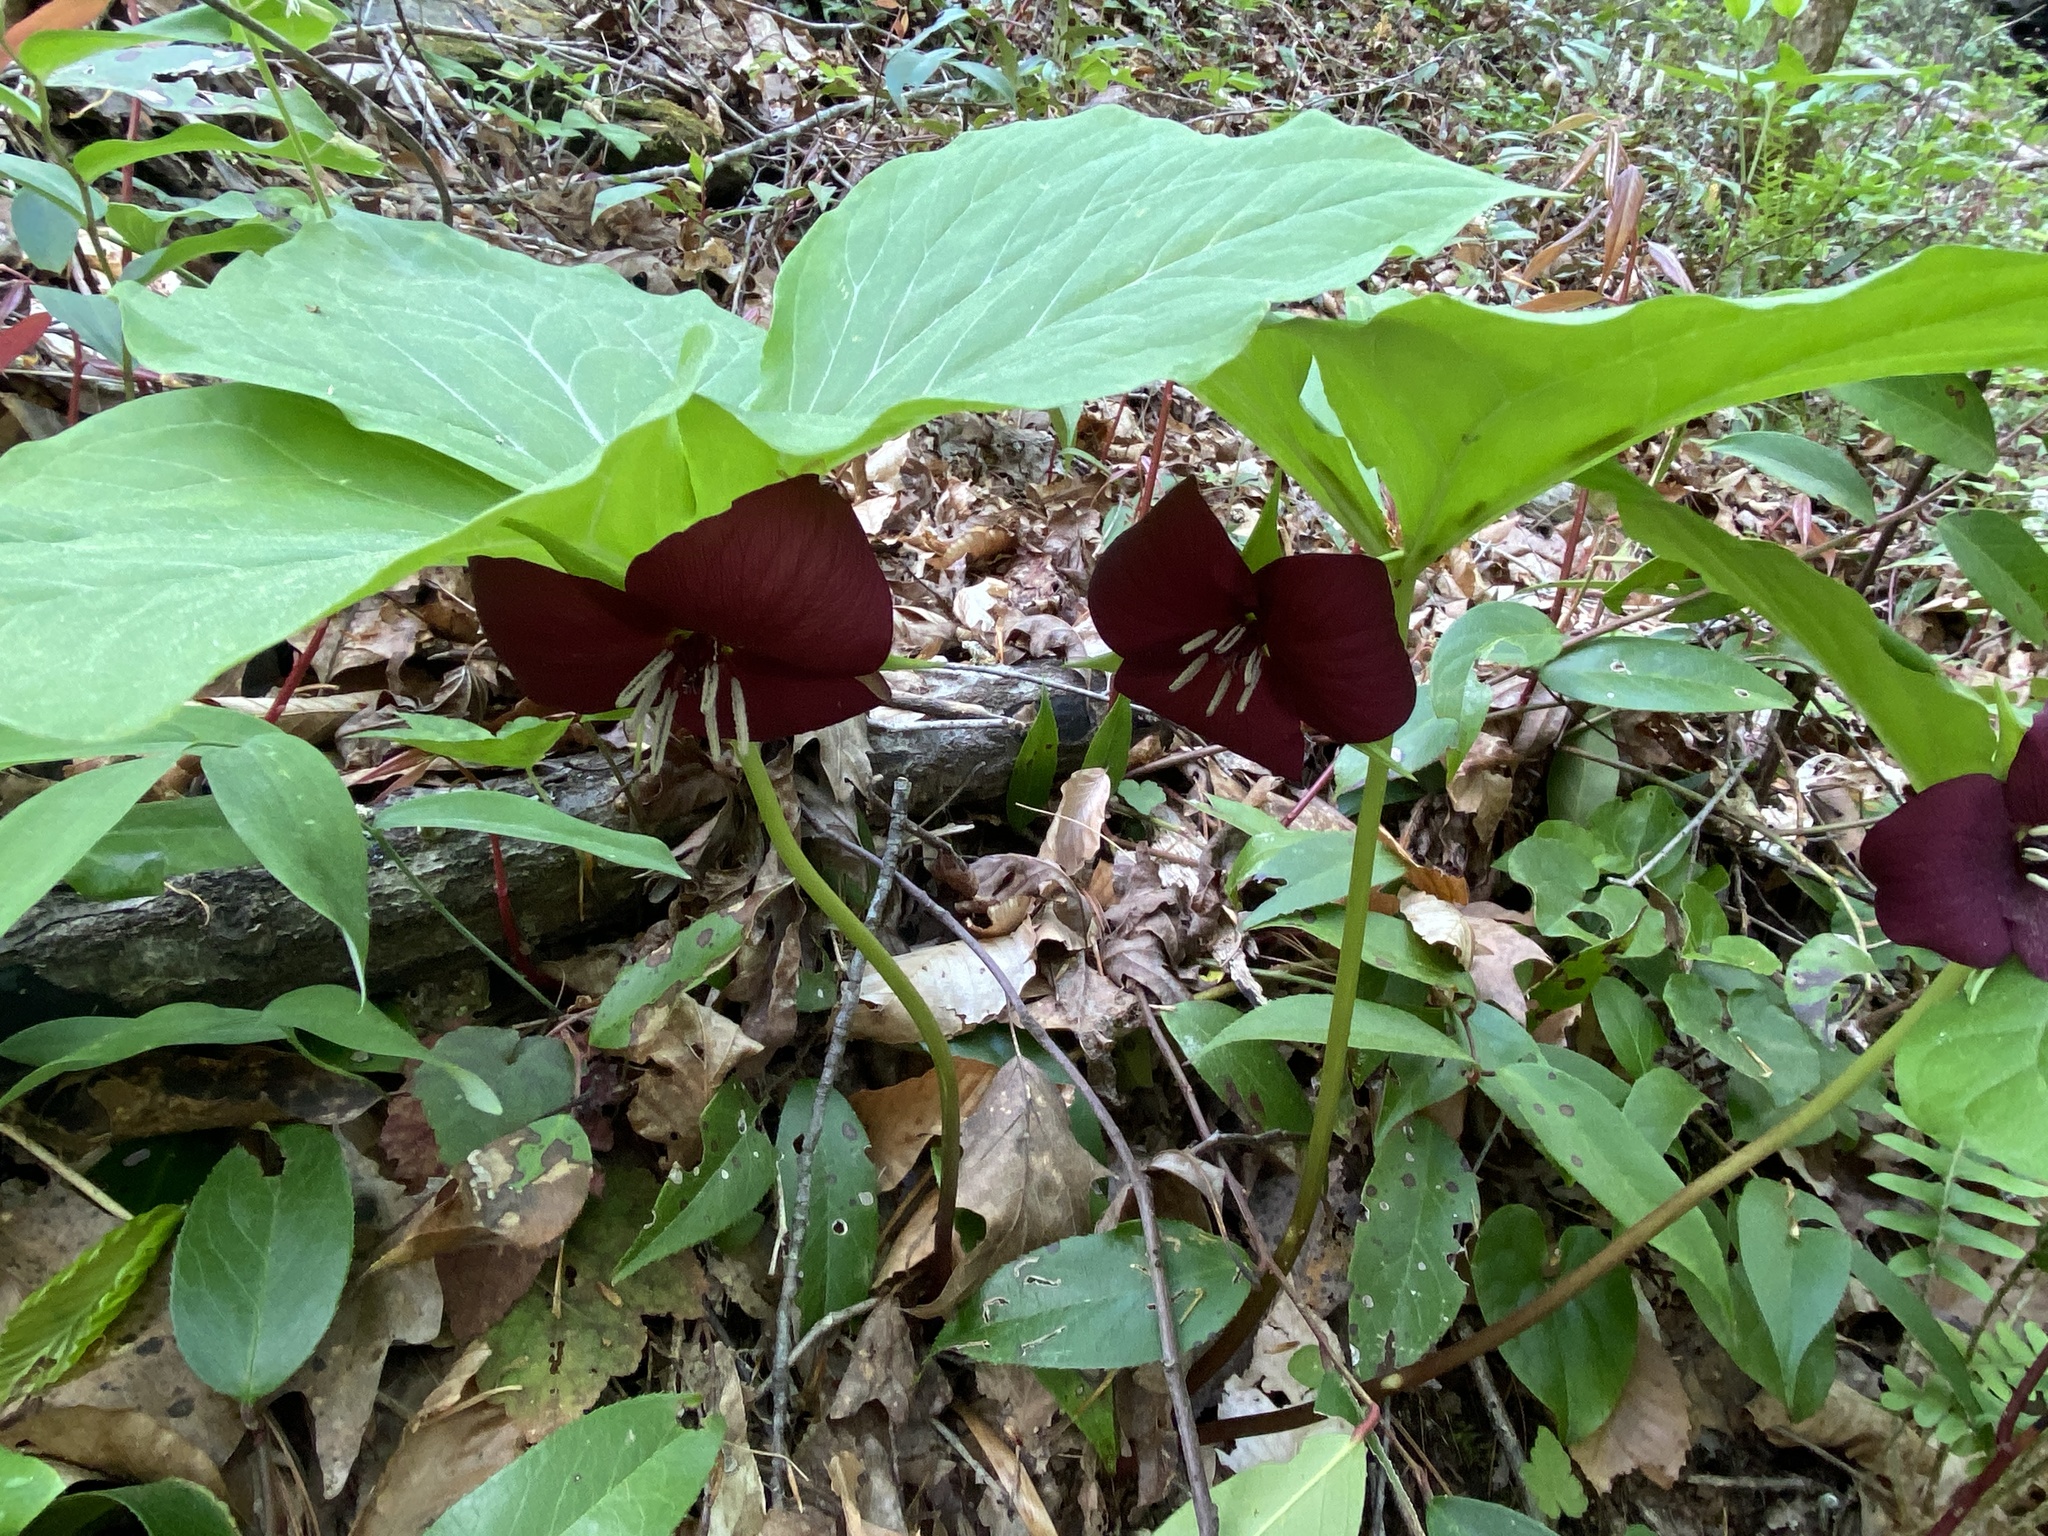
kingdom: Plantae
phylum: Tracheophyta
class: Liliopsida
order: Liliales
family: Melanthiaceae
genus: Trillium
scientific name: Trillium vaseyi
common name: Sweet trillium
